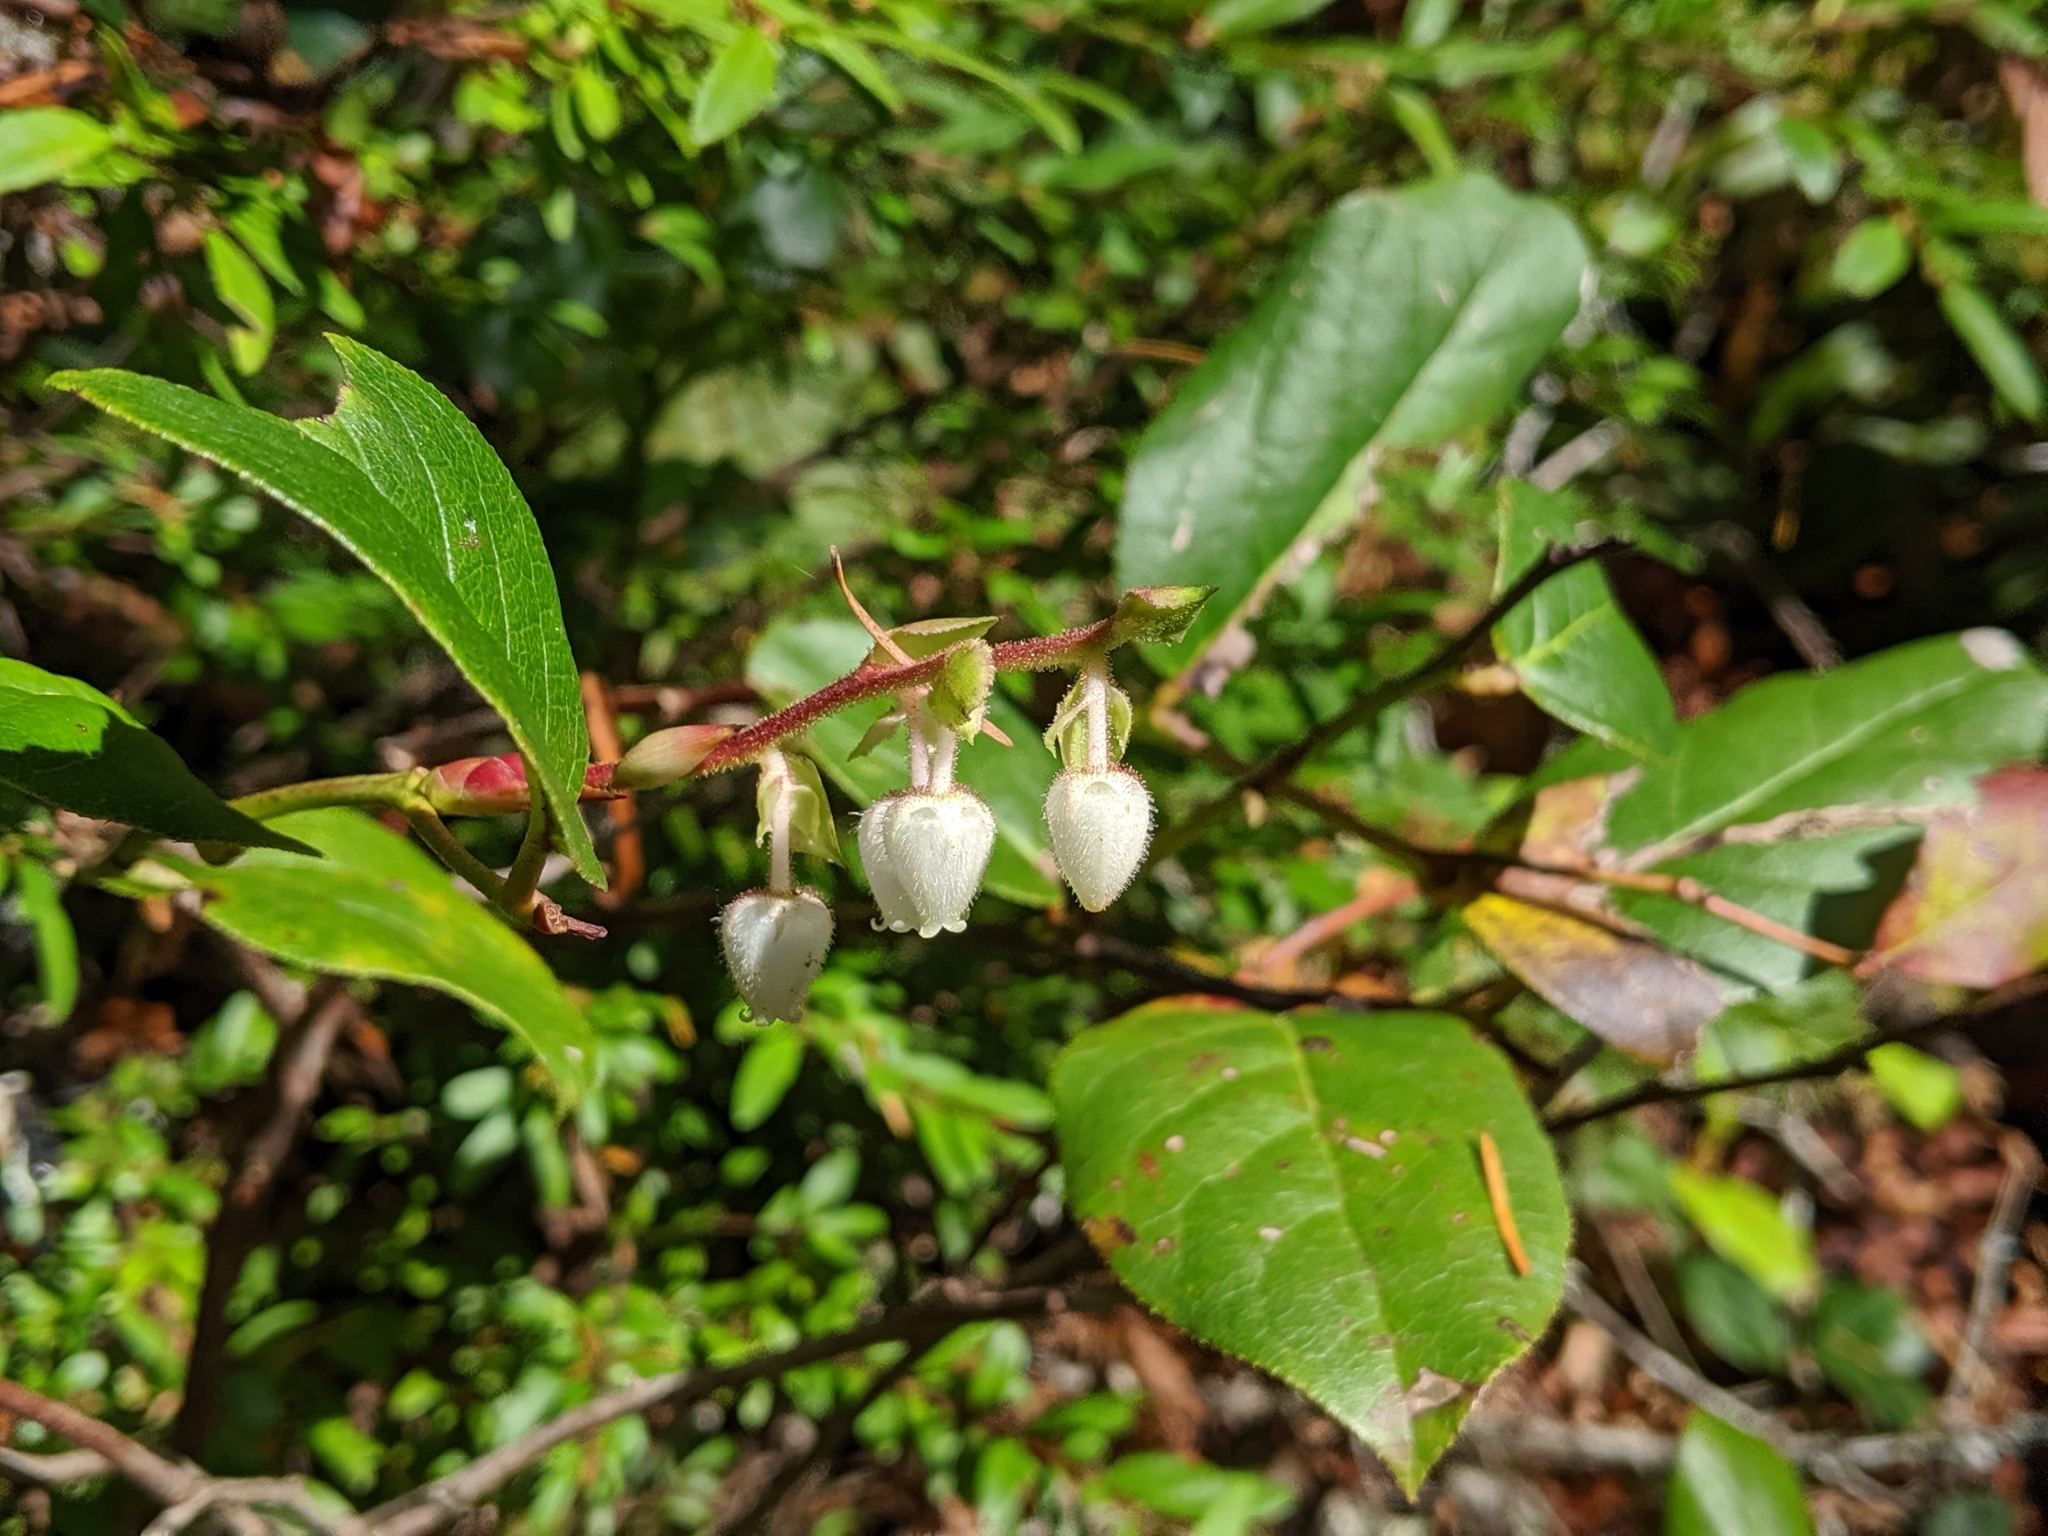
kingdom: Plantae
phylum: Tracheophyta
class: Magnoliopsida
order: Ericales
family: Ericaceae
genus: Gaultheria
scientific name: Gaultheria shallon
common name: Shallon
